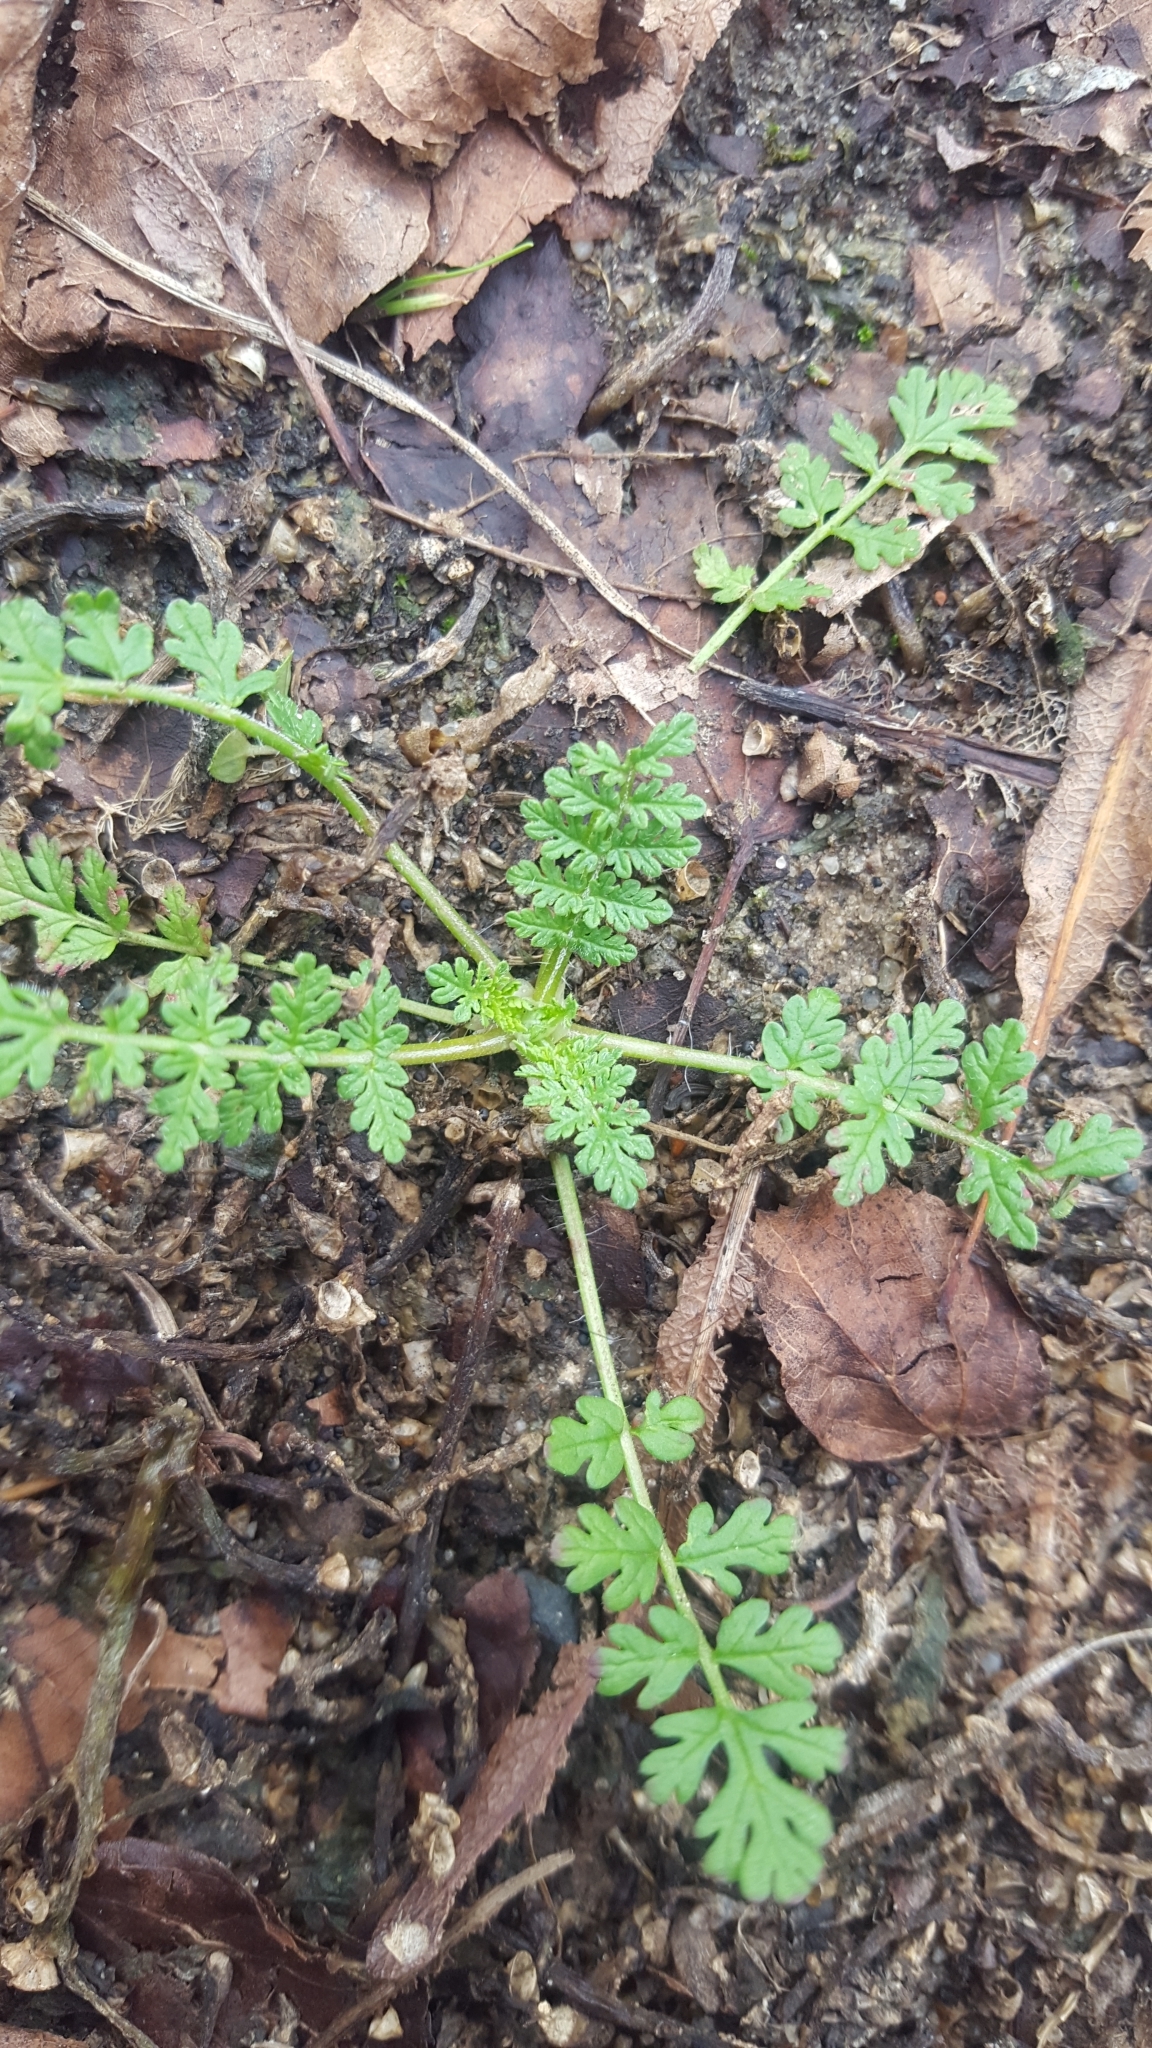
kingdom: Plantae
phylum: Tracheophyta
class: Magnoliopsida
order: Geraniales
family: Geraniaceae
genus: Erodium
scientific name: Erodium cicutarium
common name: Common stork's-bill
